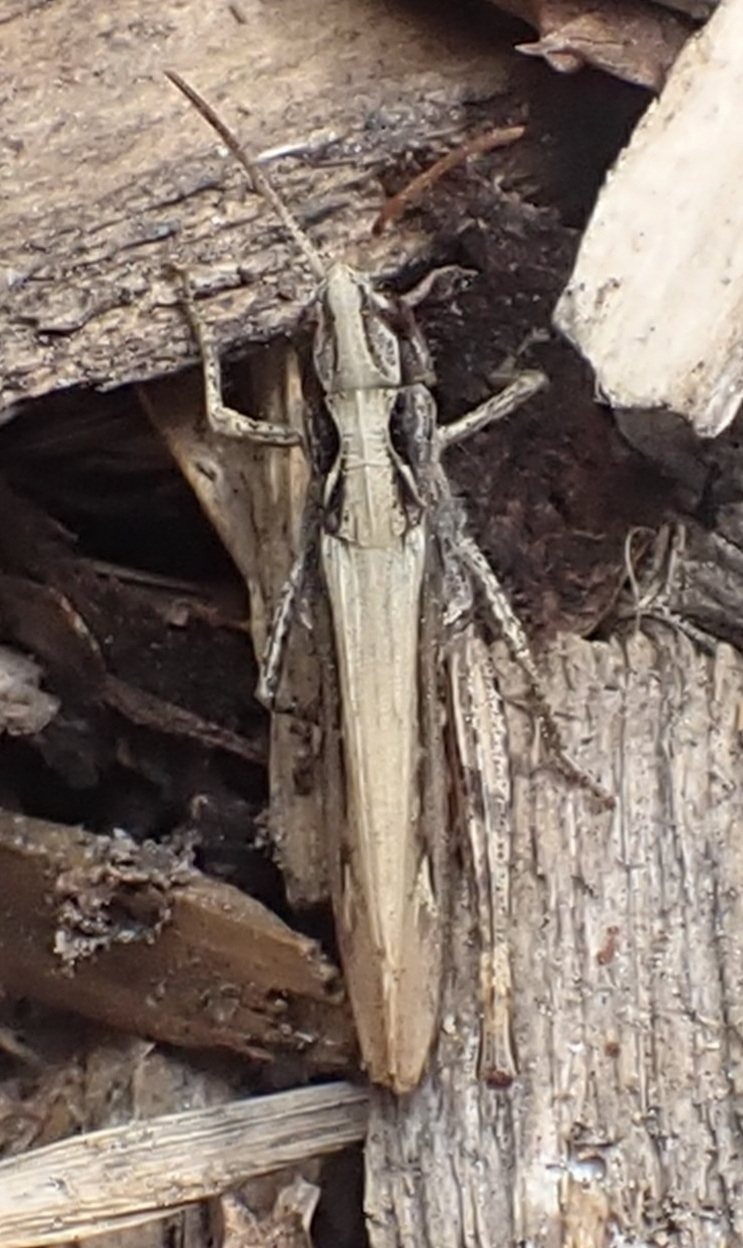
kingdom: Animalia
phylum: Arthropoda
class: Insecta
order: Orthoptera
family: Acrididae
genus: Chorthippus
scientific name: Chorthippus apricarius
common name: Upland field grasshopper
